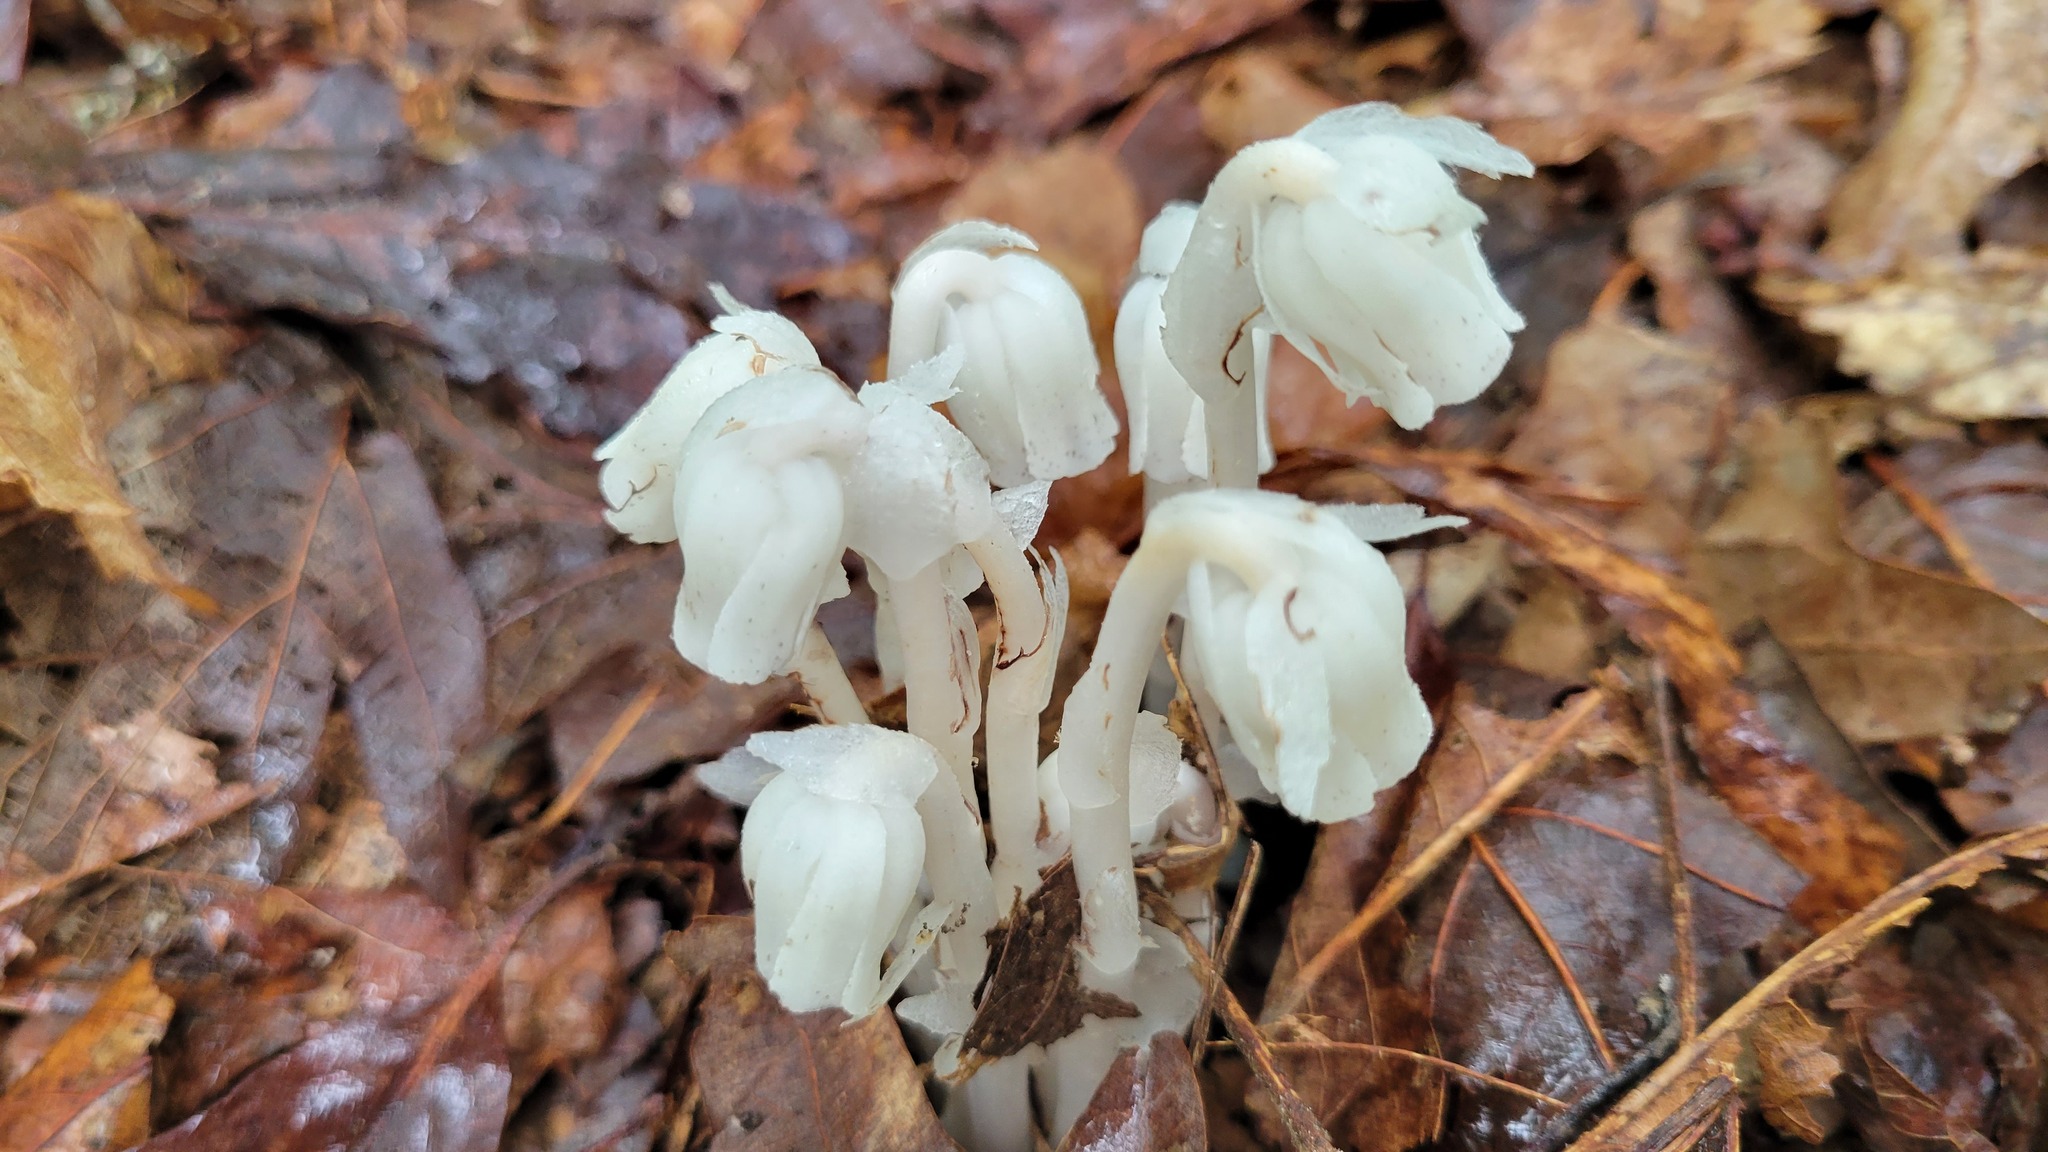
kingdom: Plantae
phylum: Tracheophyta
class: Magnoliopsida
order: Ericales
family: Ericaceae
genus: Monotropa
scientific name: Monotropa uniflora
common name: Convulsion root
